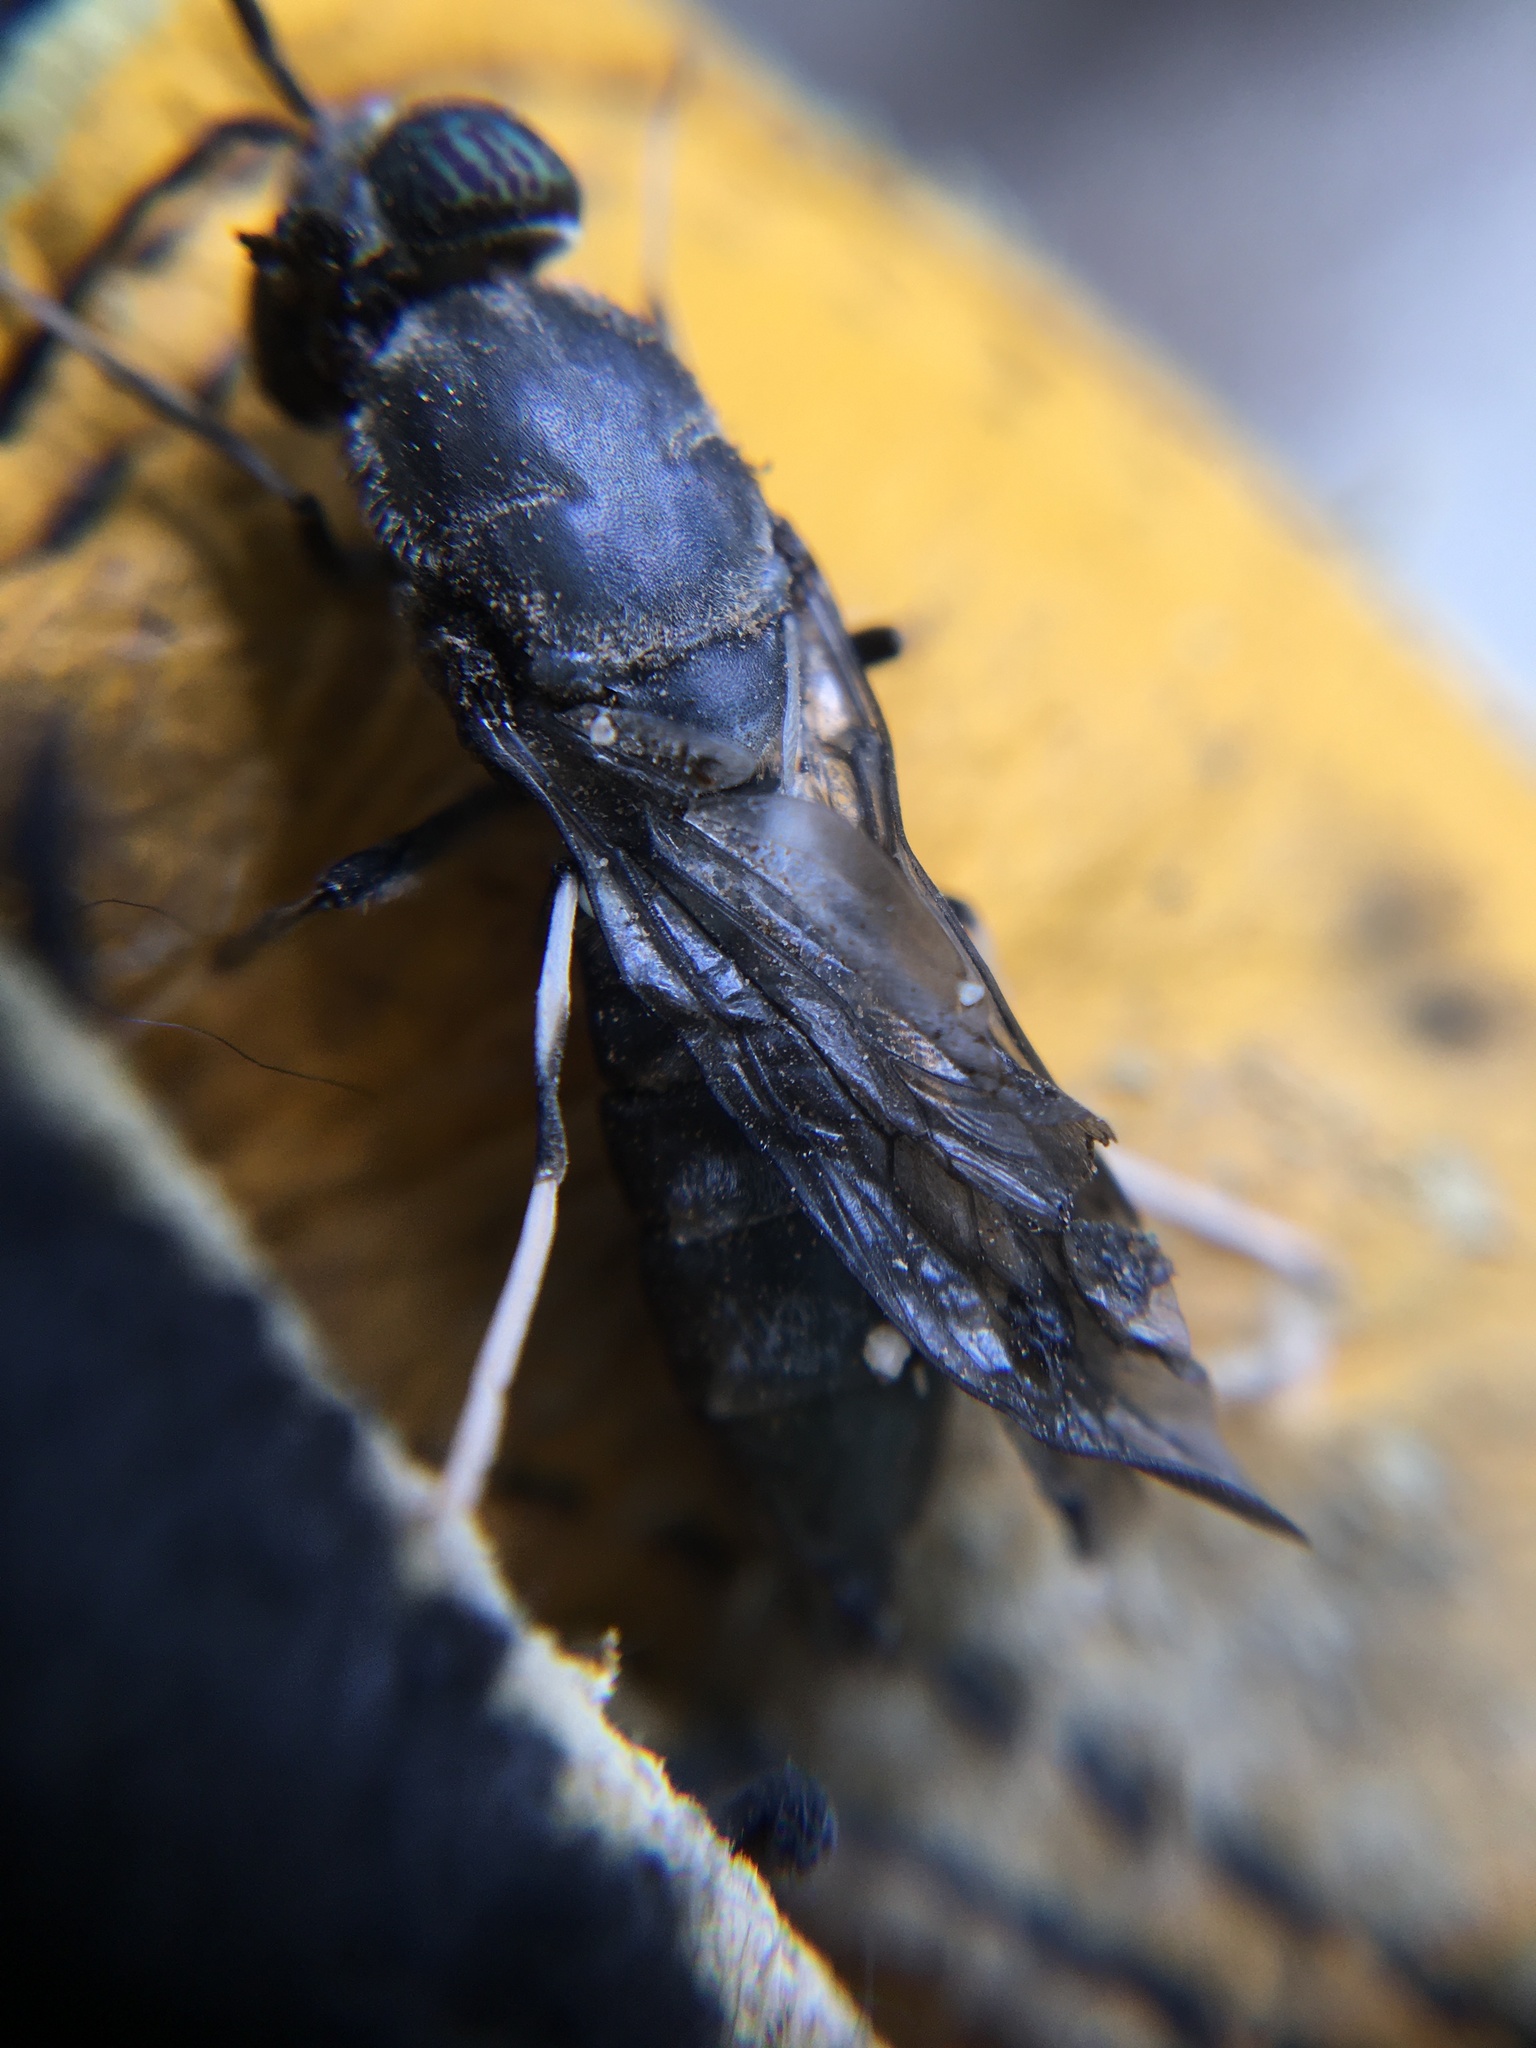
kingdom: Animalia
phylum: Arthropoda
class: Insecta
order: Diptera
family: Stratiomyidae
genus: Hermetia
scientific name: Hermetia illucens
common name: Black soldier fly
